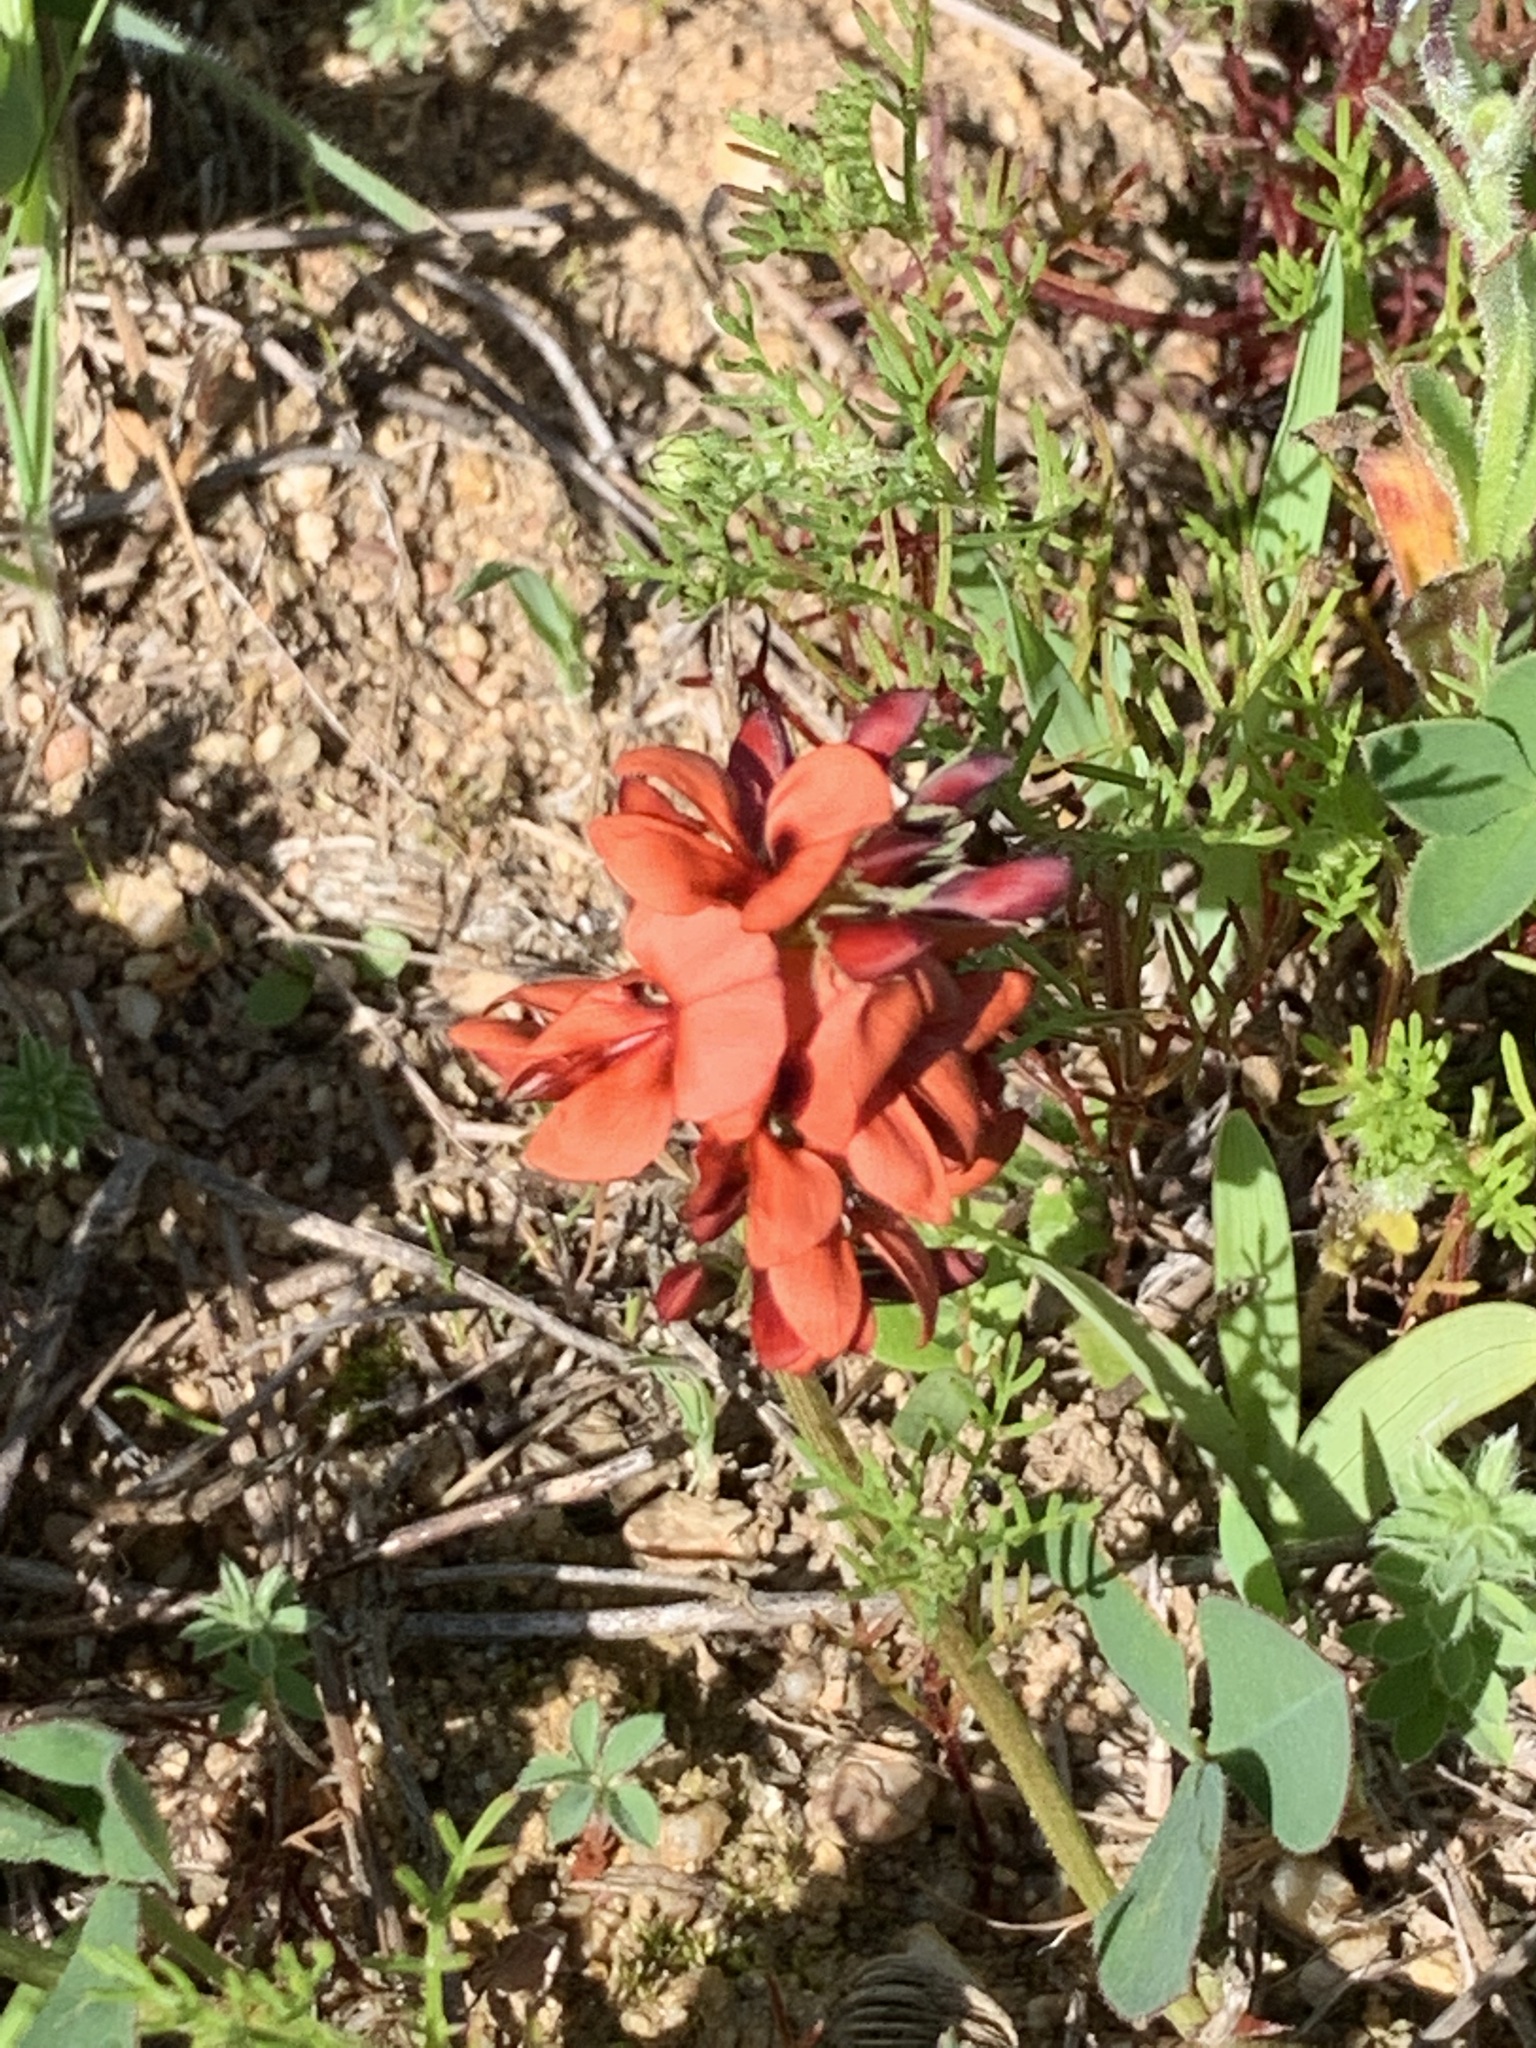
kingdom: Plantae
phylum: Tracheophyta
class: Magnoliopsida
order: Fabales
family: Fabaceae
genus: Indigofera
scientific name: Indigofera discolor
